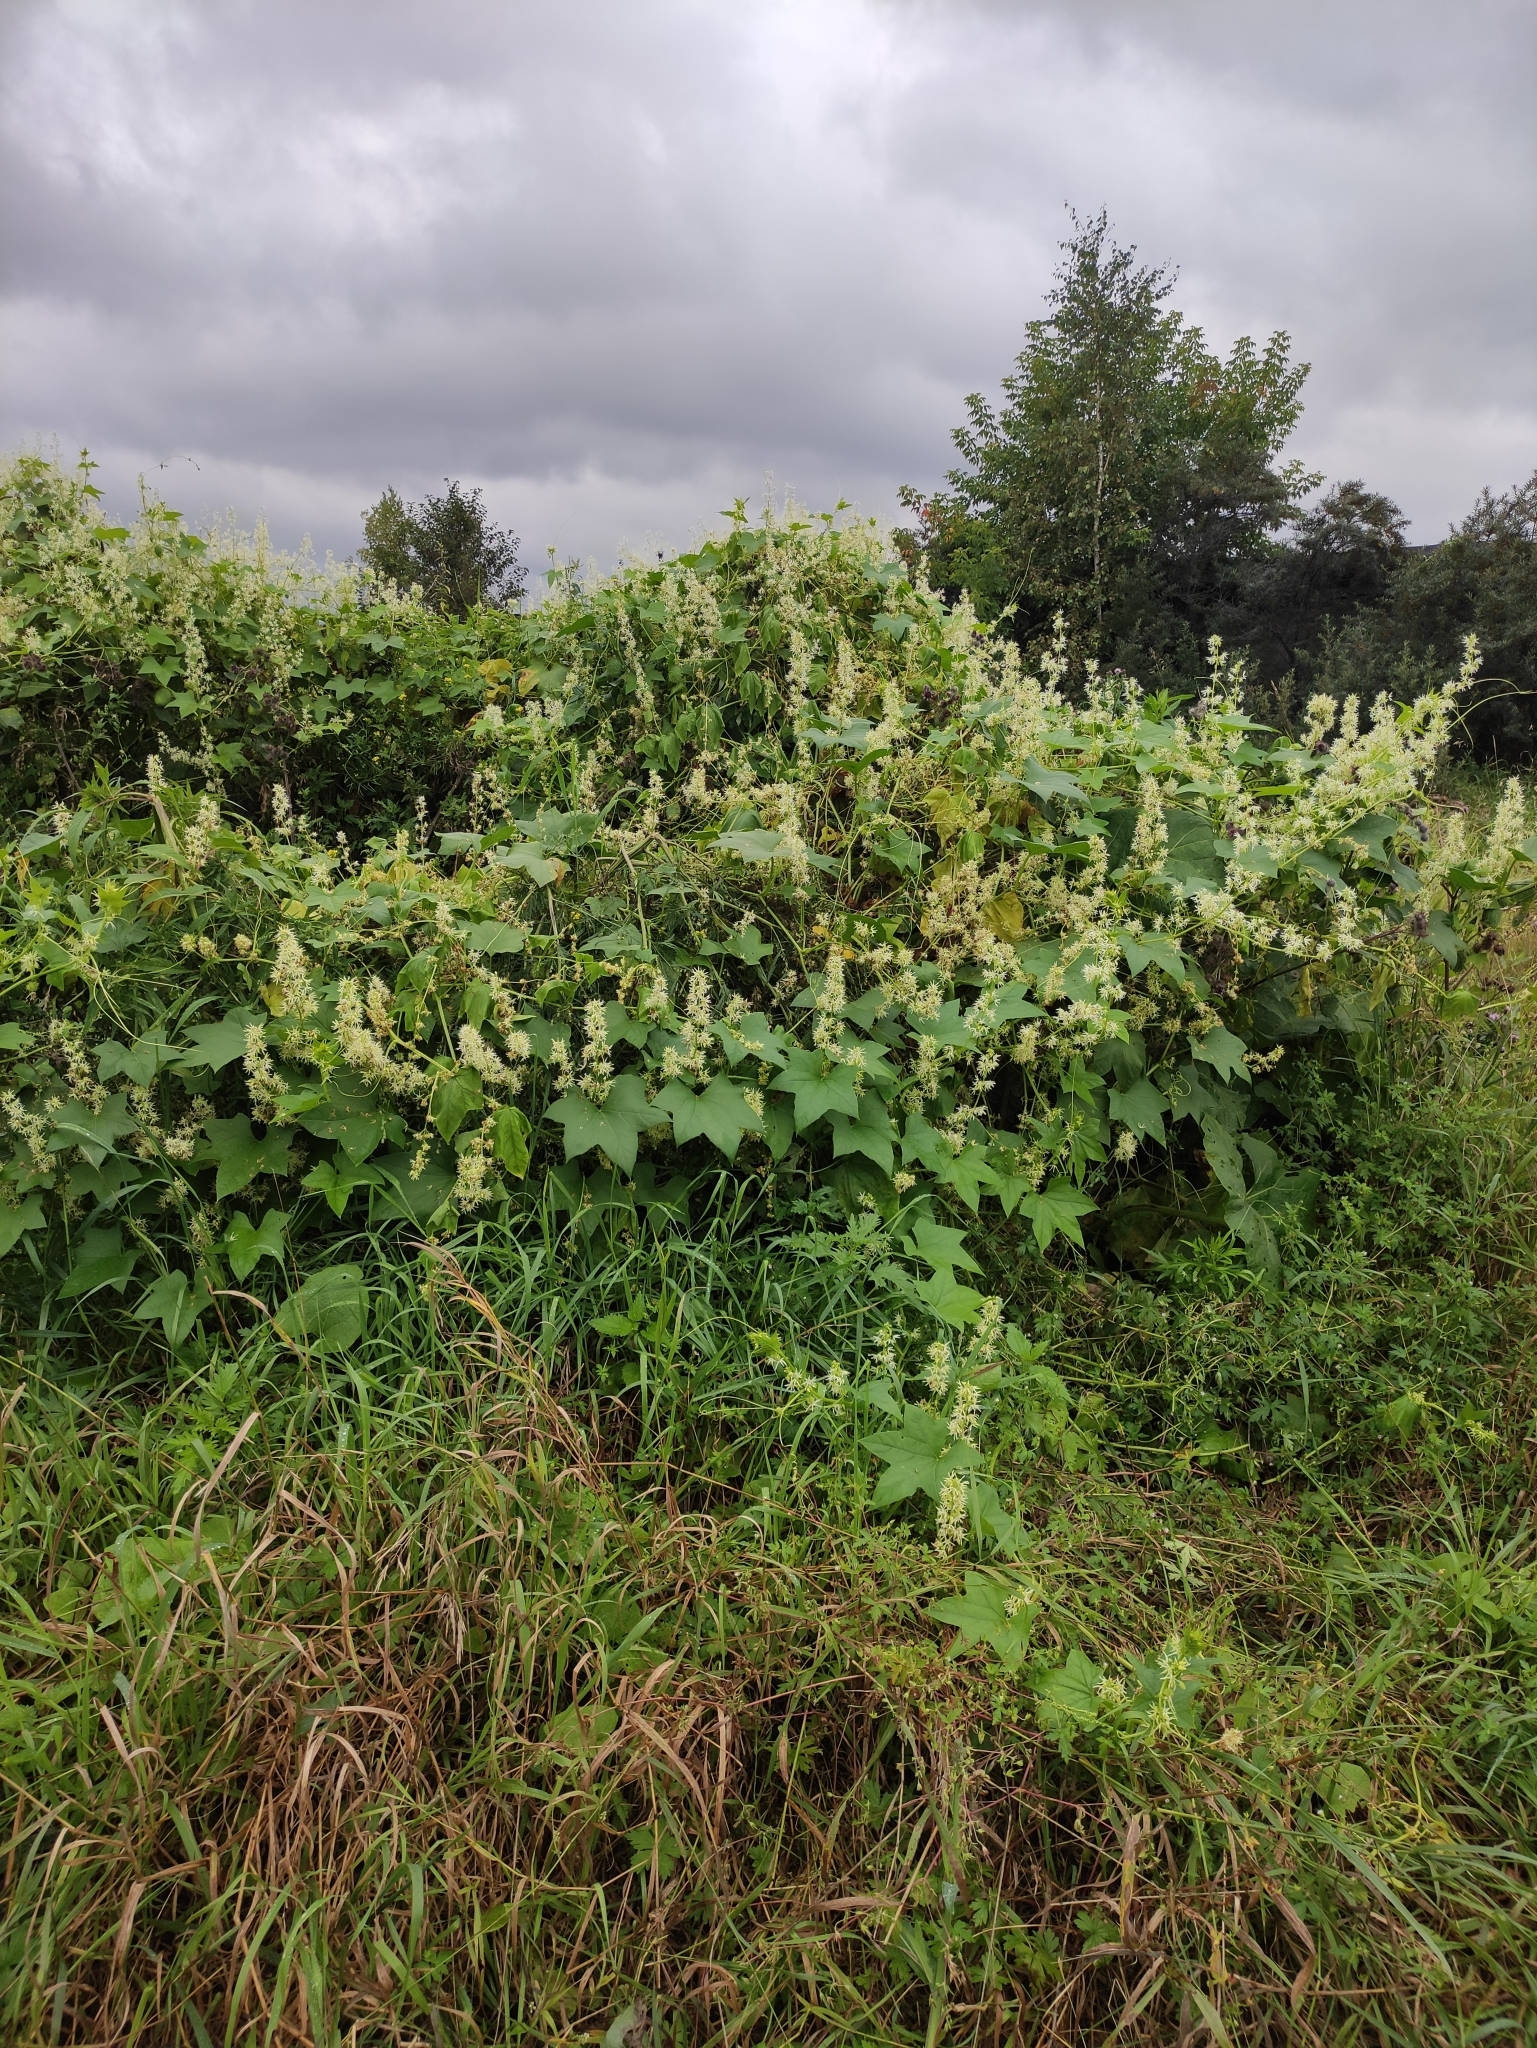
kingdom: Plantae
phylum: Tracheophyta
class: Magnoliopsida
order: Cucurbitales
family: Cucurbitaceae
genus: Echinocystis
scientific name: Echinocystis lobata
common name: Wild cucumber
